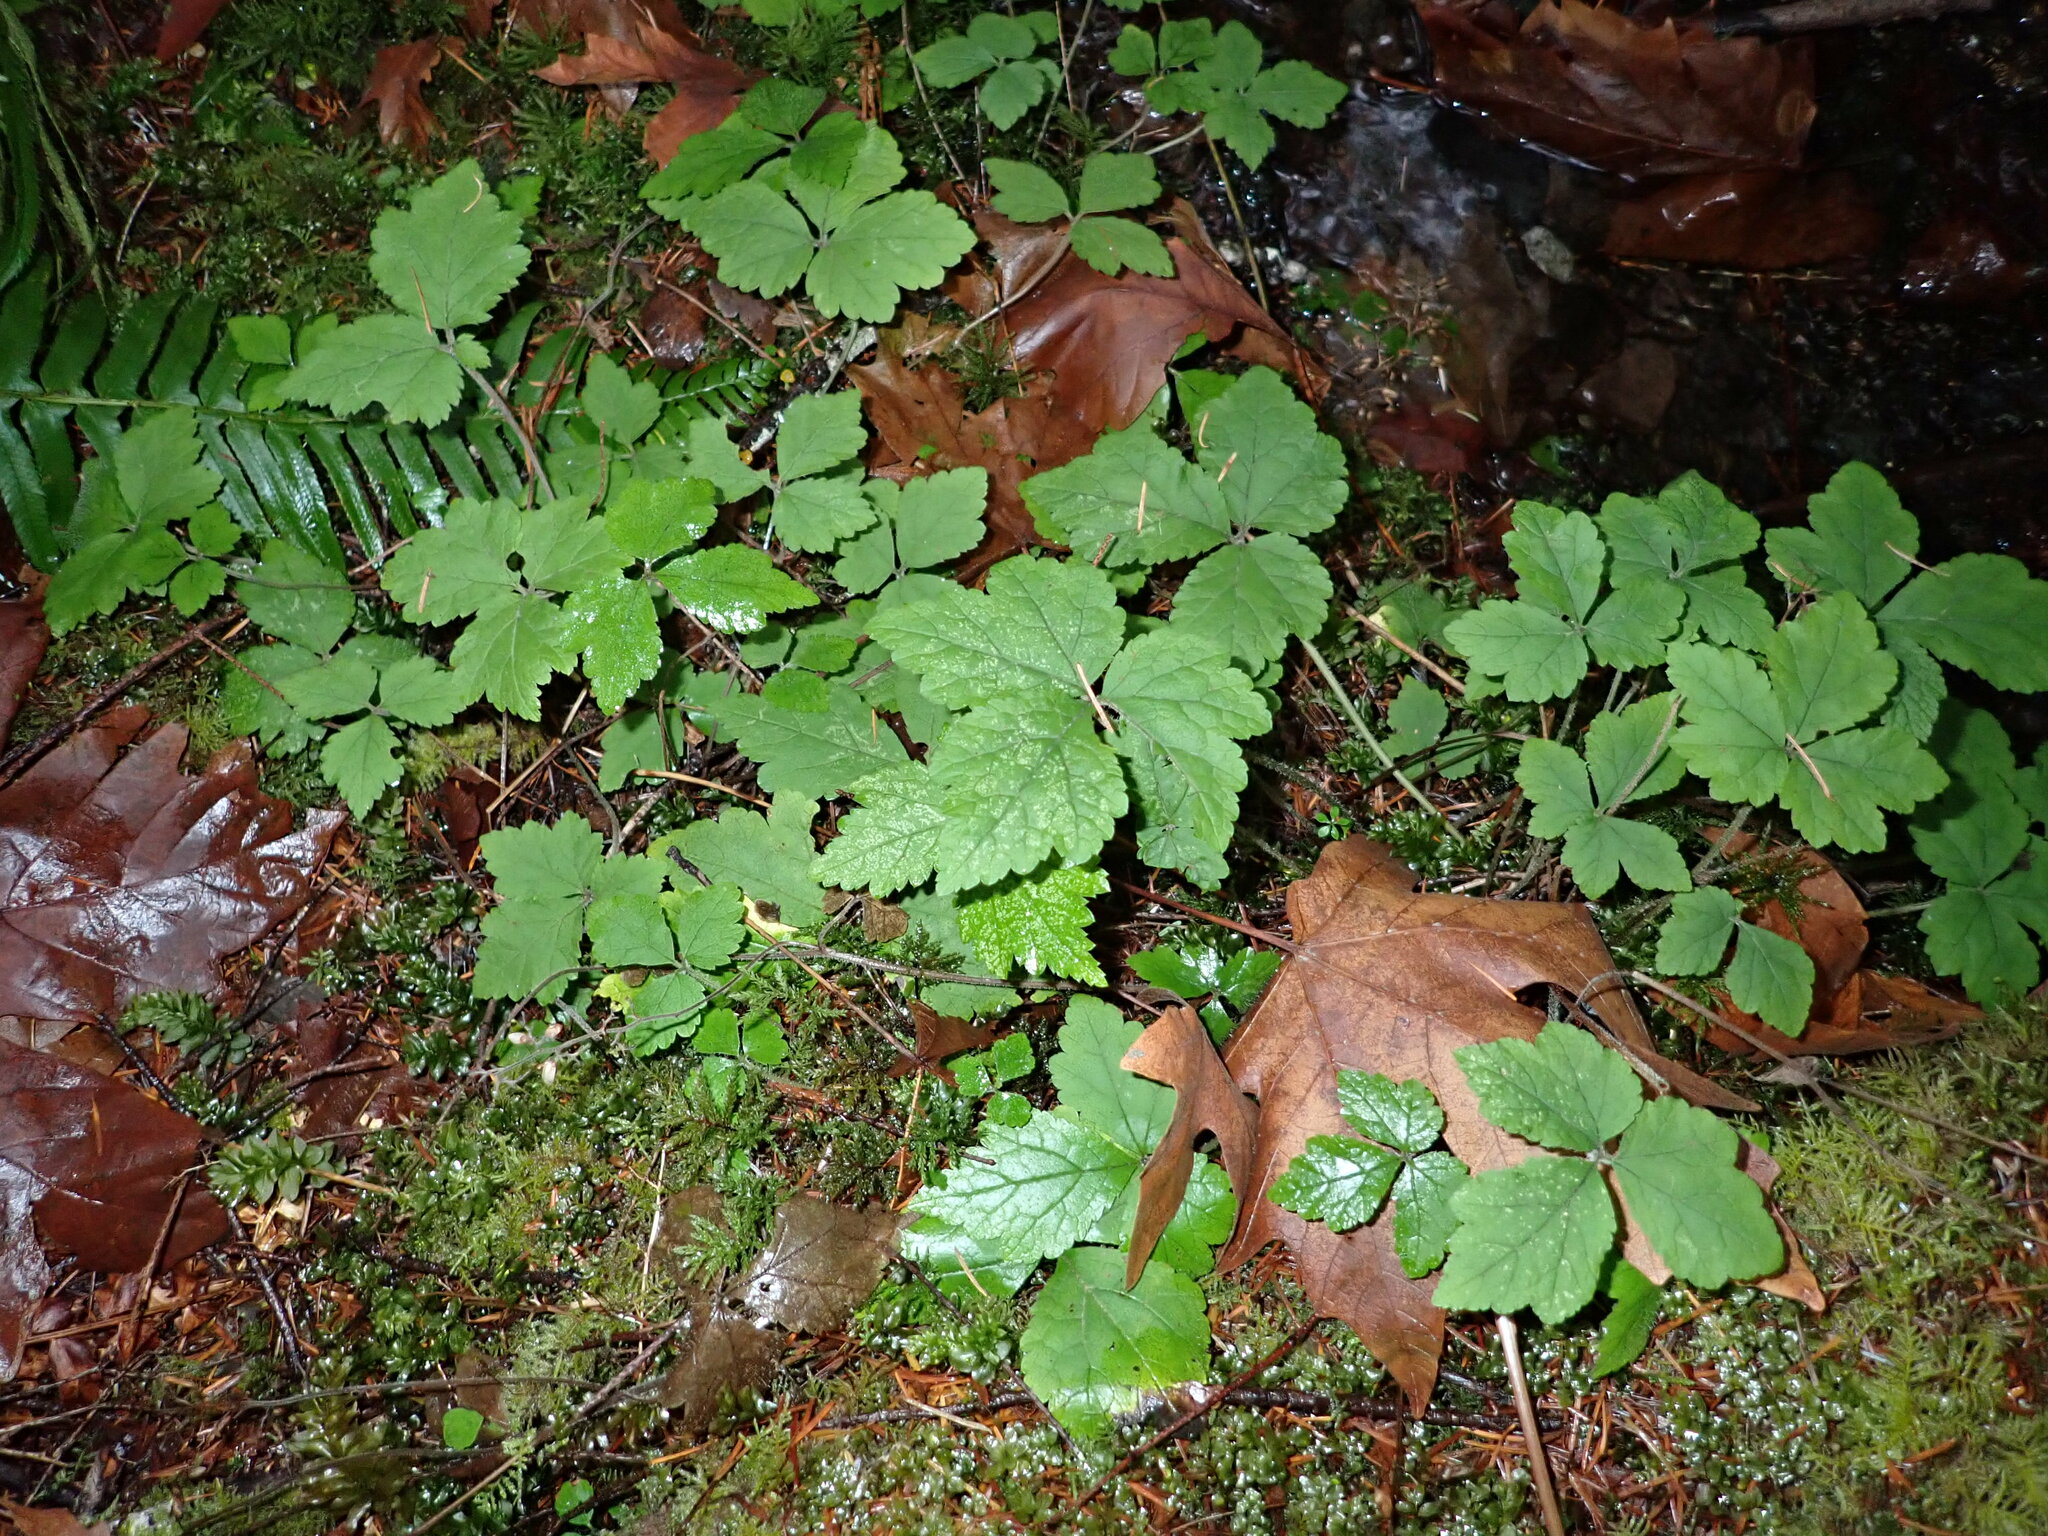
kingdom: Plantae
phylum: Tracheophyta
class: Magnoliopsida
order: Saxifragales
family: Saxifragaceae
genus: Tiarella
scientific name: Tiarella trifoliata
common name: Sugar-scoop
